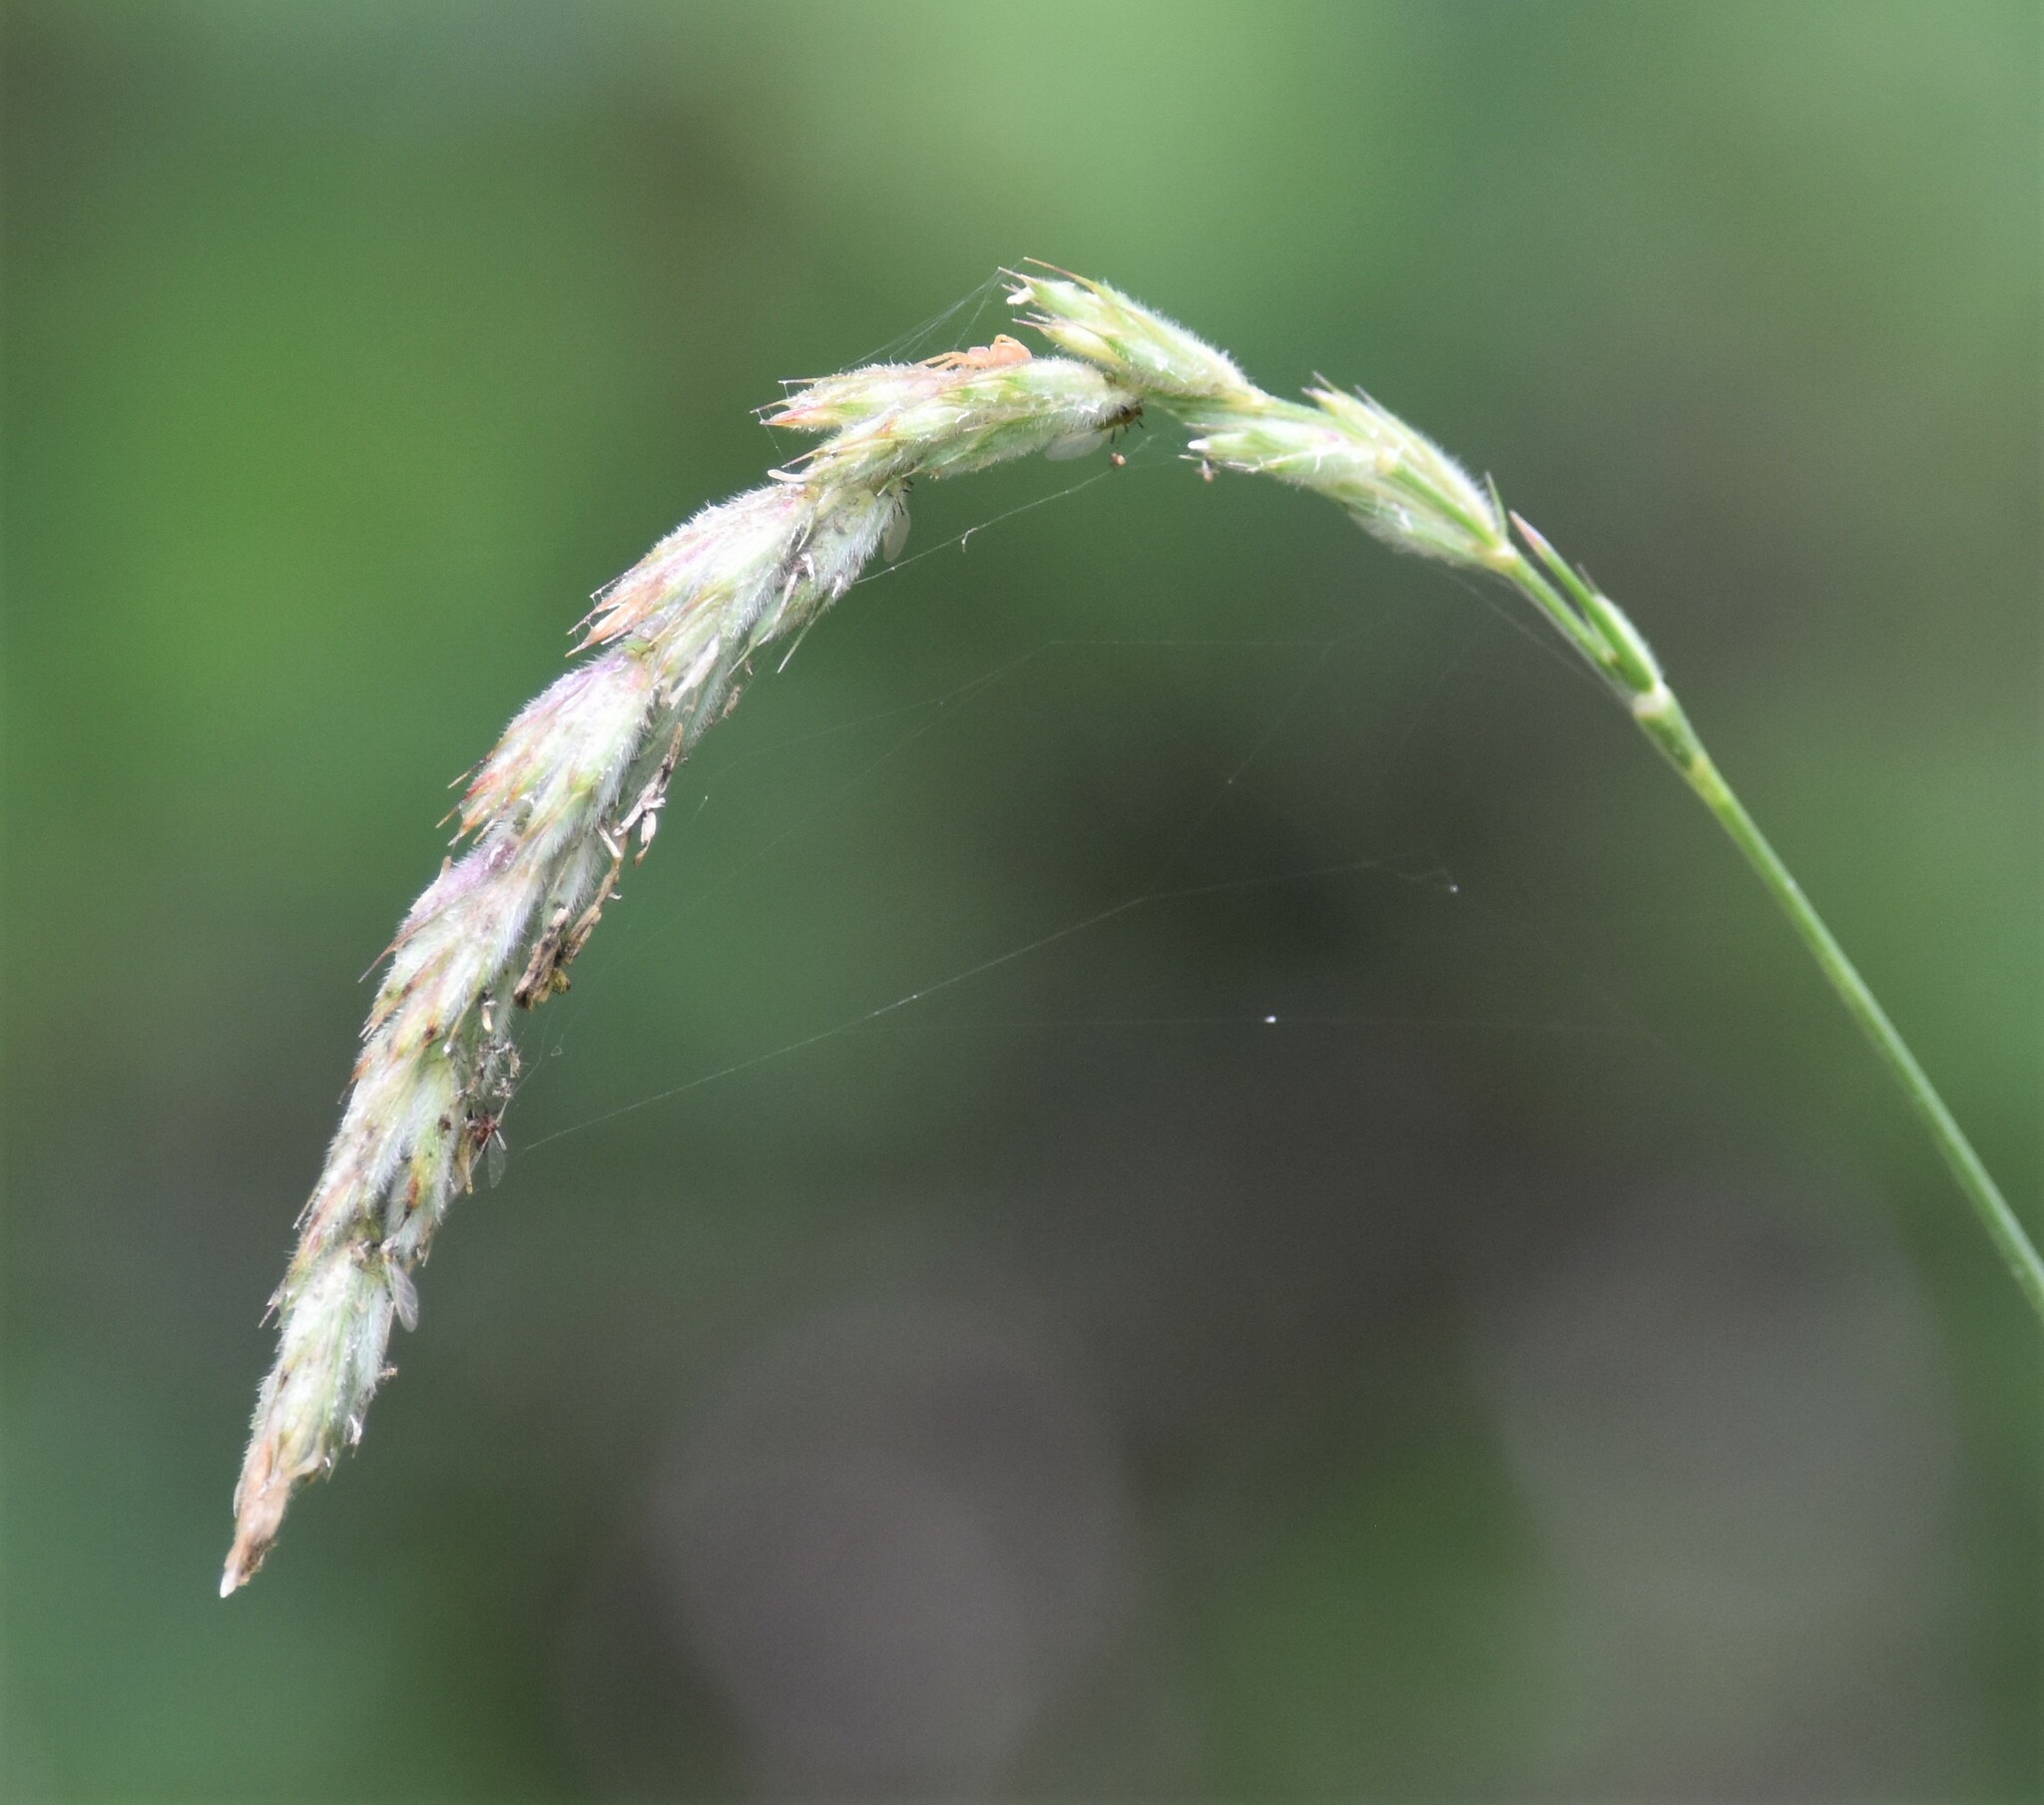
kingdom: Plantae
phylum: Tracheophyta
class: Liliopsida
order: Poales
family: Poaceae
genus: Leymus
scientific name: Leymus innovatus
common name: Boreal wild rye
